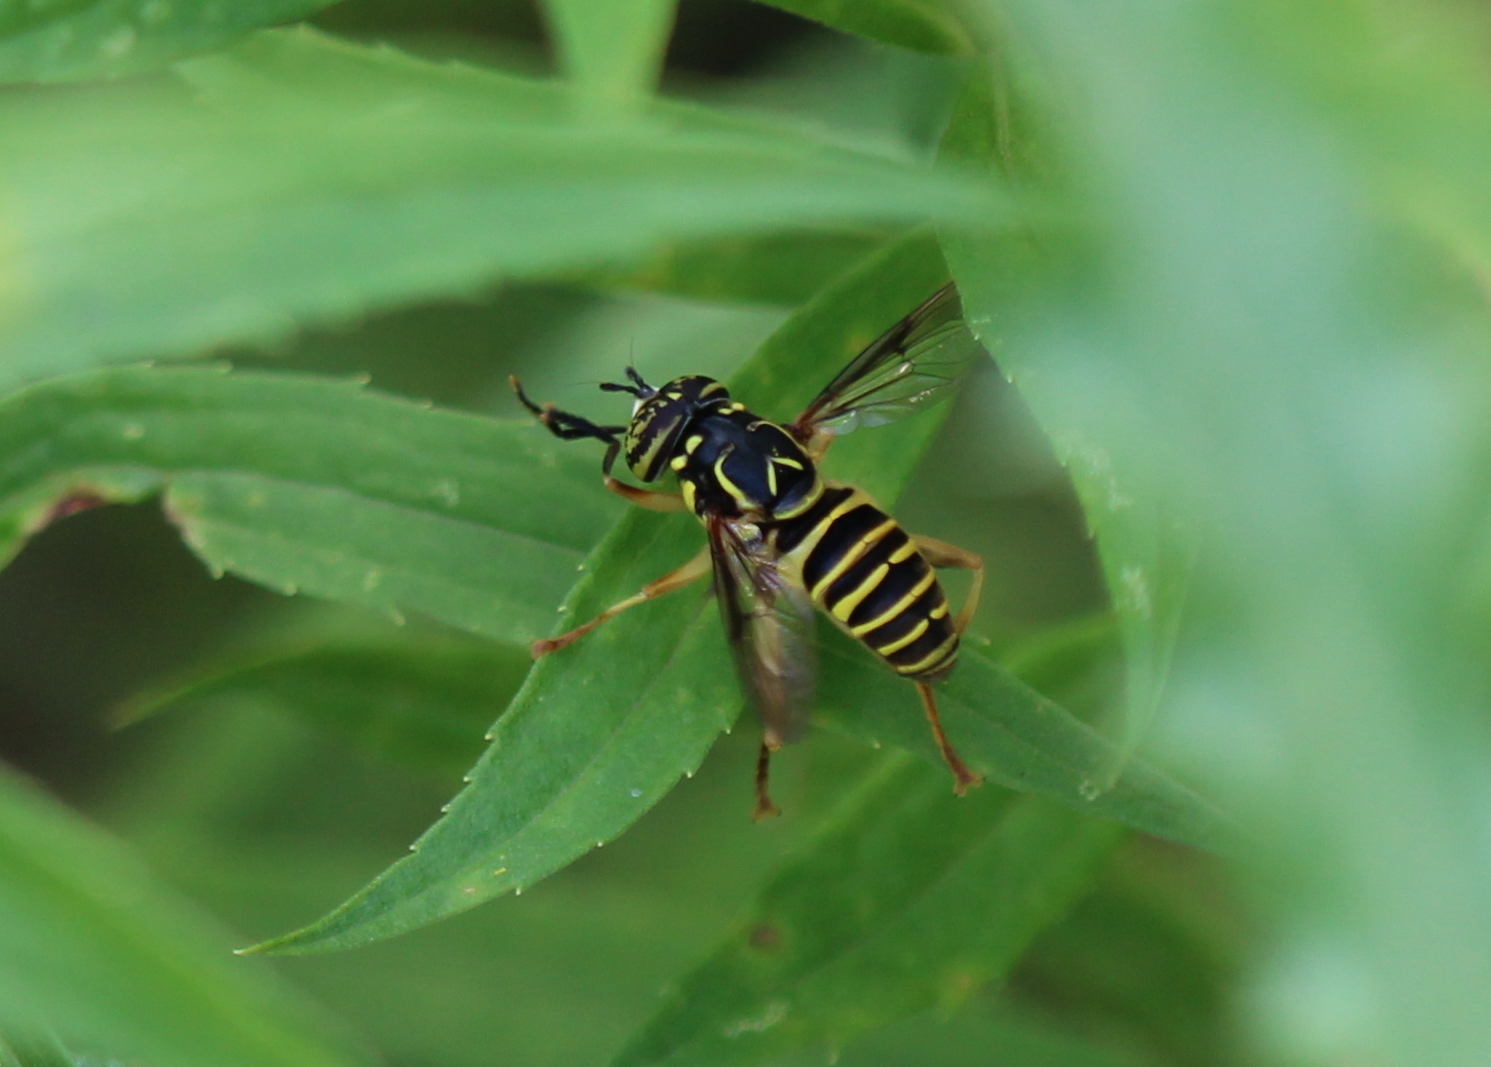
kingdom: Animalia
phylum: Arthropoda
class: Insecta
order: Diptera
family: Syrphidae
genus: Spilomyia
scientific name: Spilomyia longicornis
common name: Eastern hornet fly
